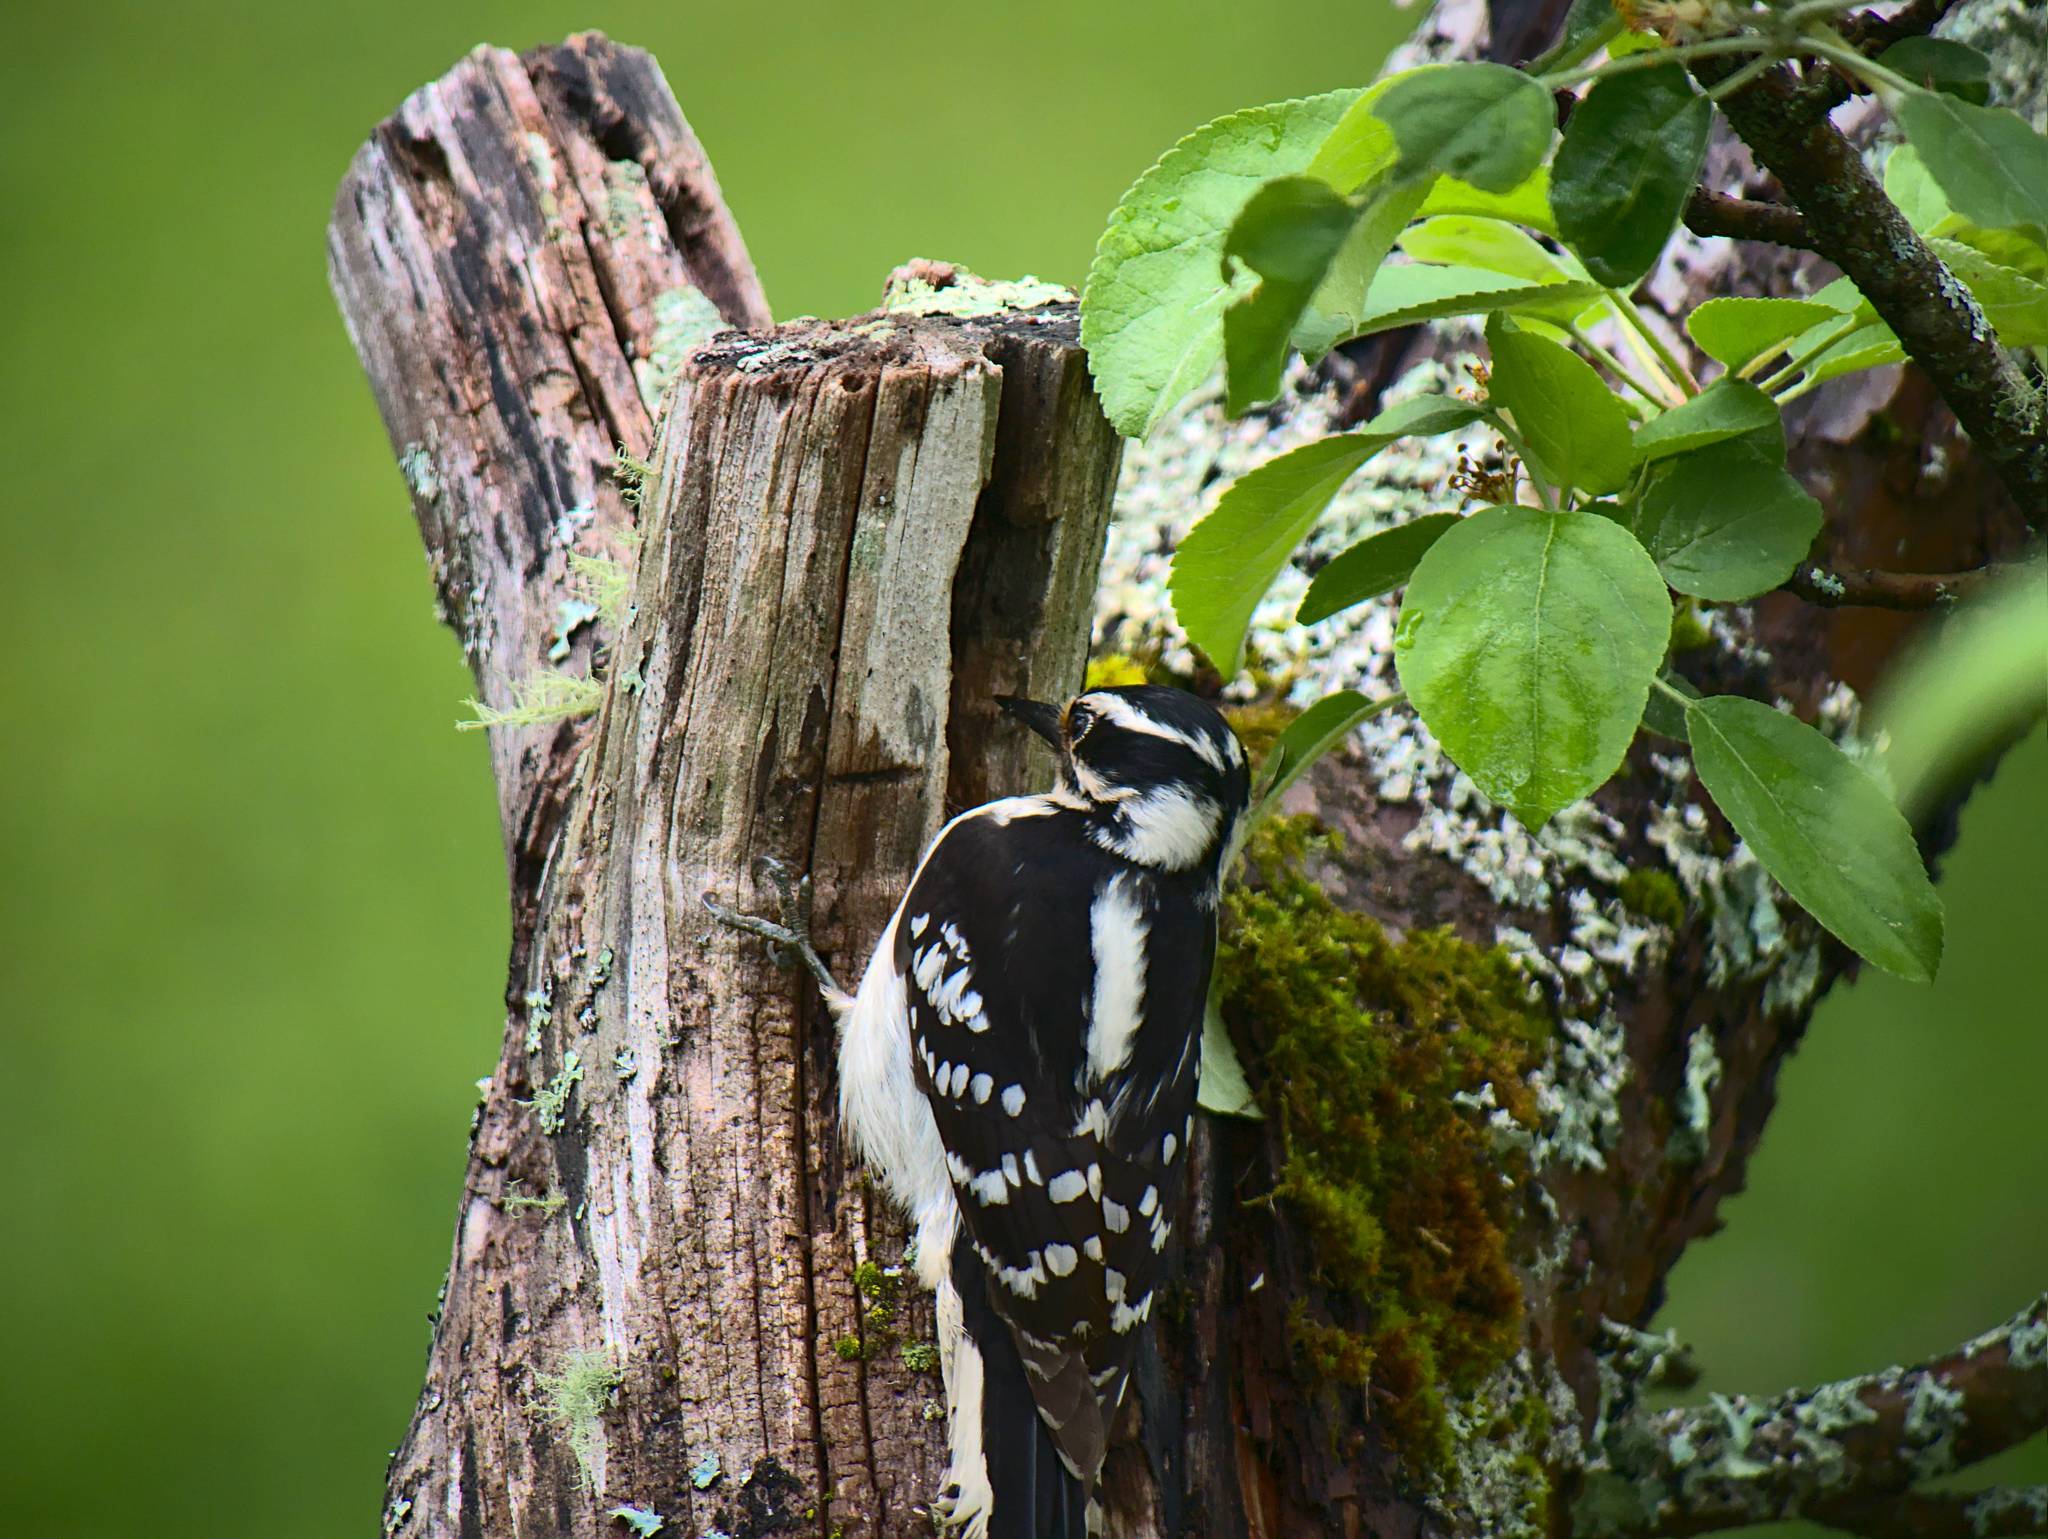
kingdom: Animalia
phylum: Chordata
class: Aves
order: Piciformes
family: Picidae
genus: Dryobates
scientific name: Dryobates pubescens
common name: Downy woodpecker
